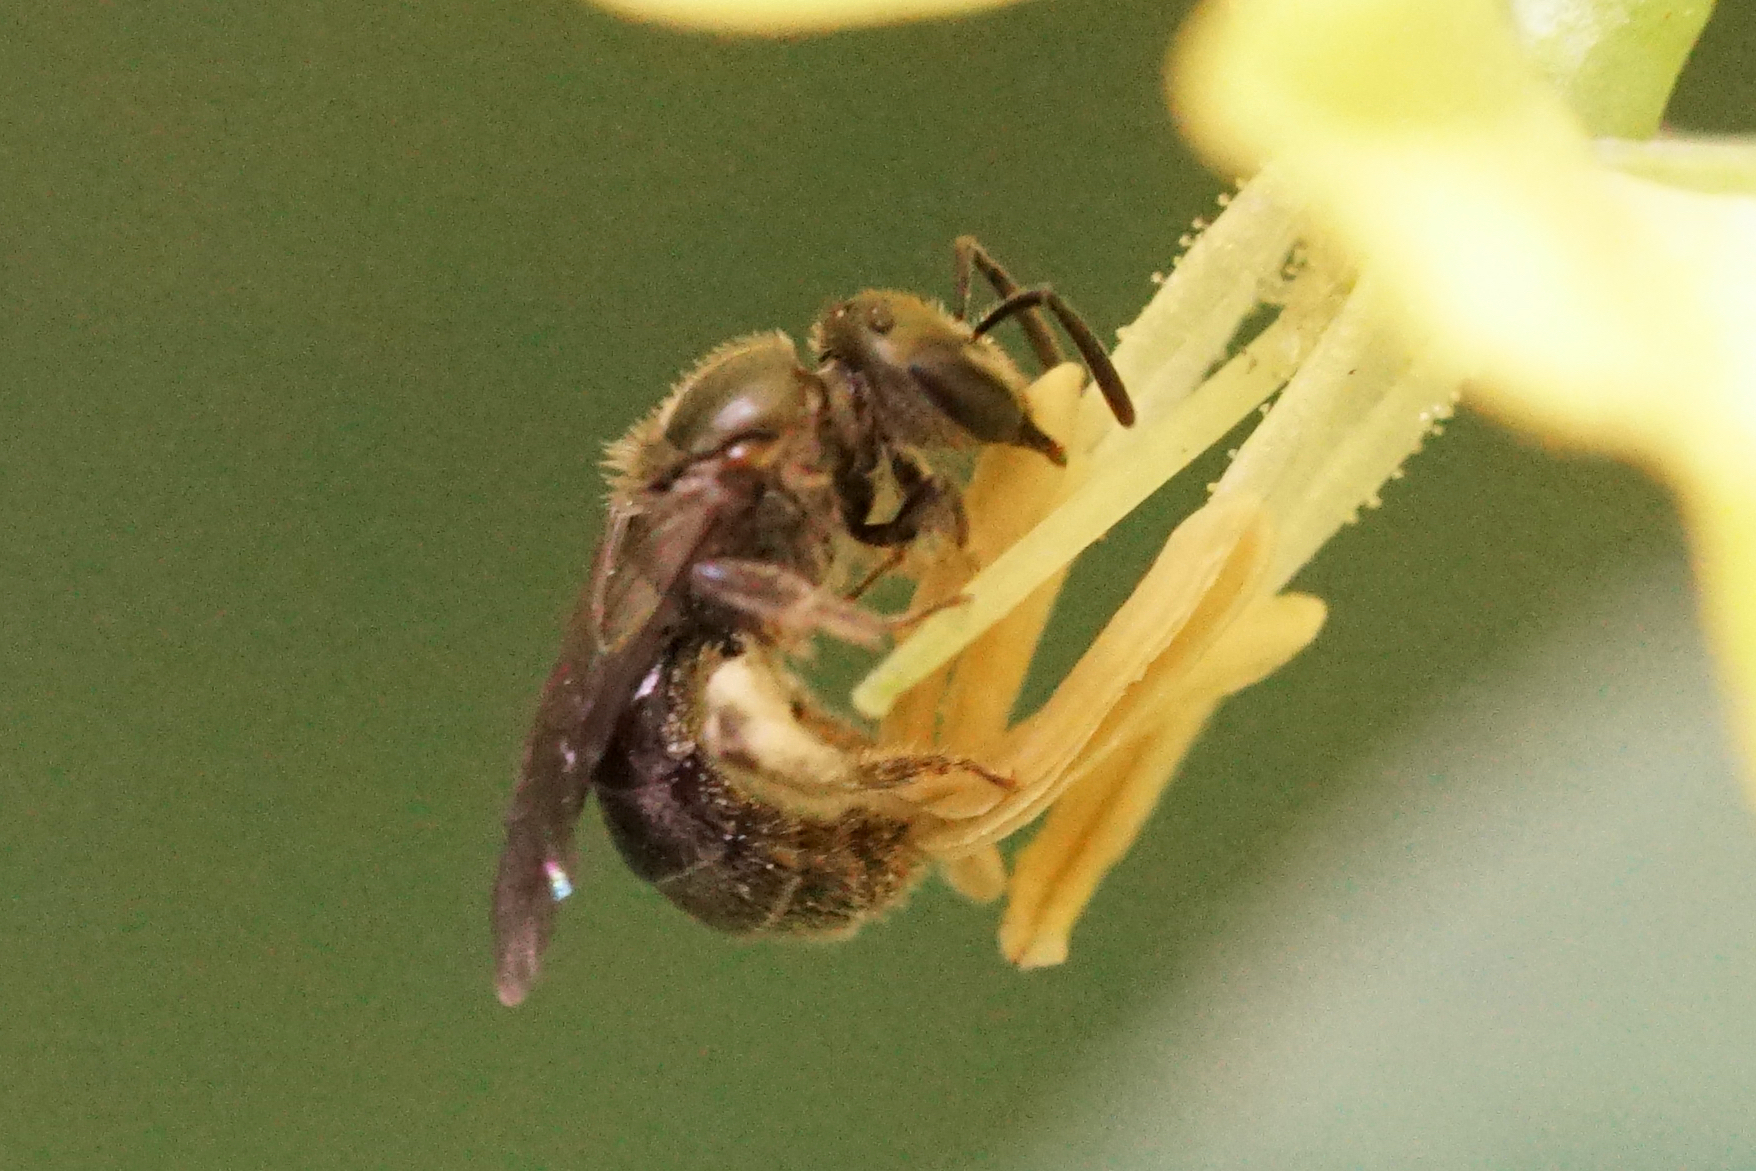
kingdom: Animalia
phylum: Arthropoda
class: Insecta
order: Hymenoptera
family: Halictidae
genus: Dialictus
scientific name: Dialictus
